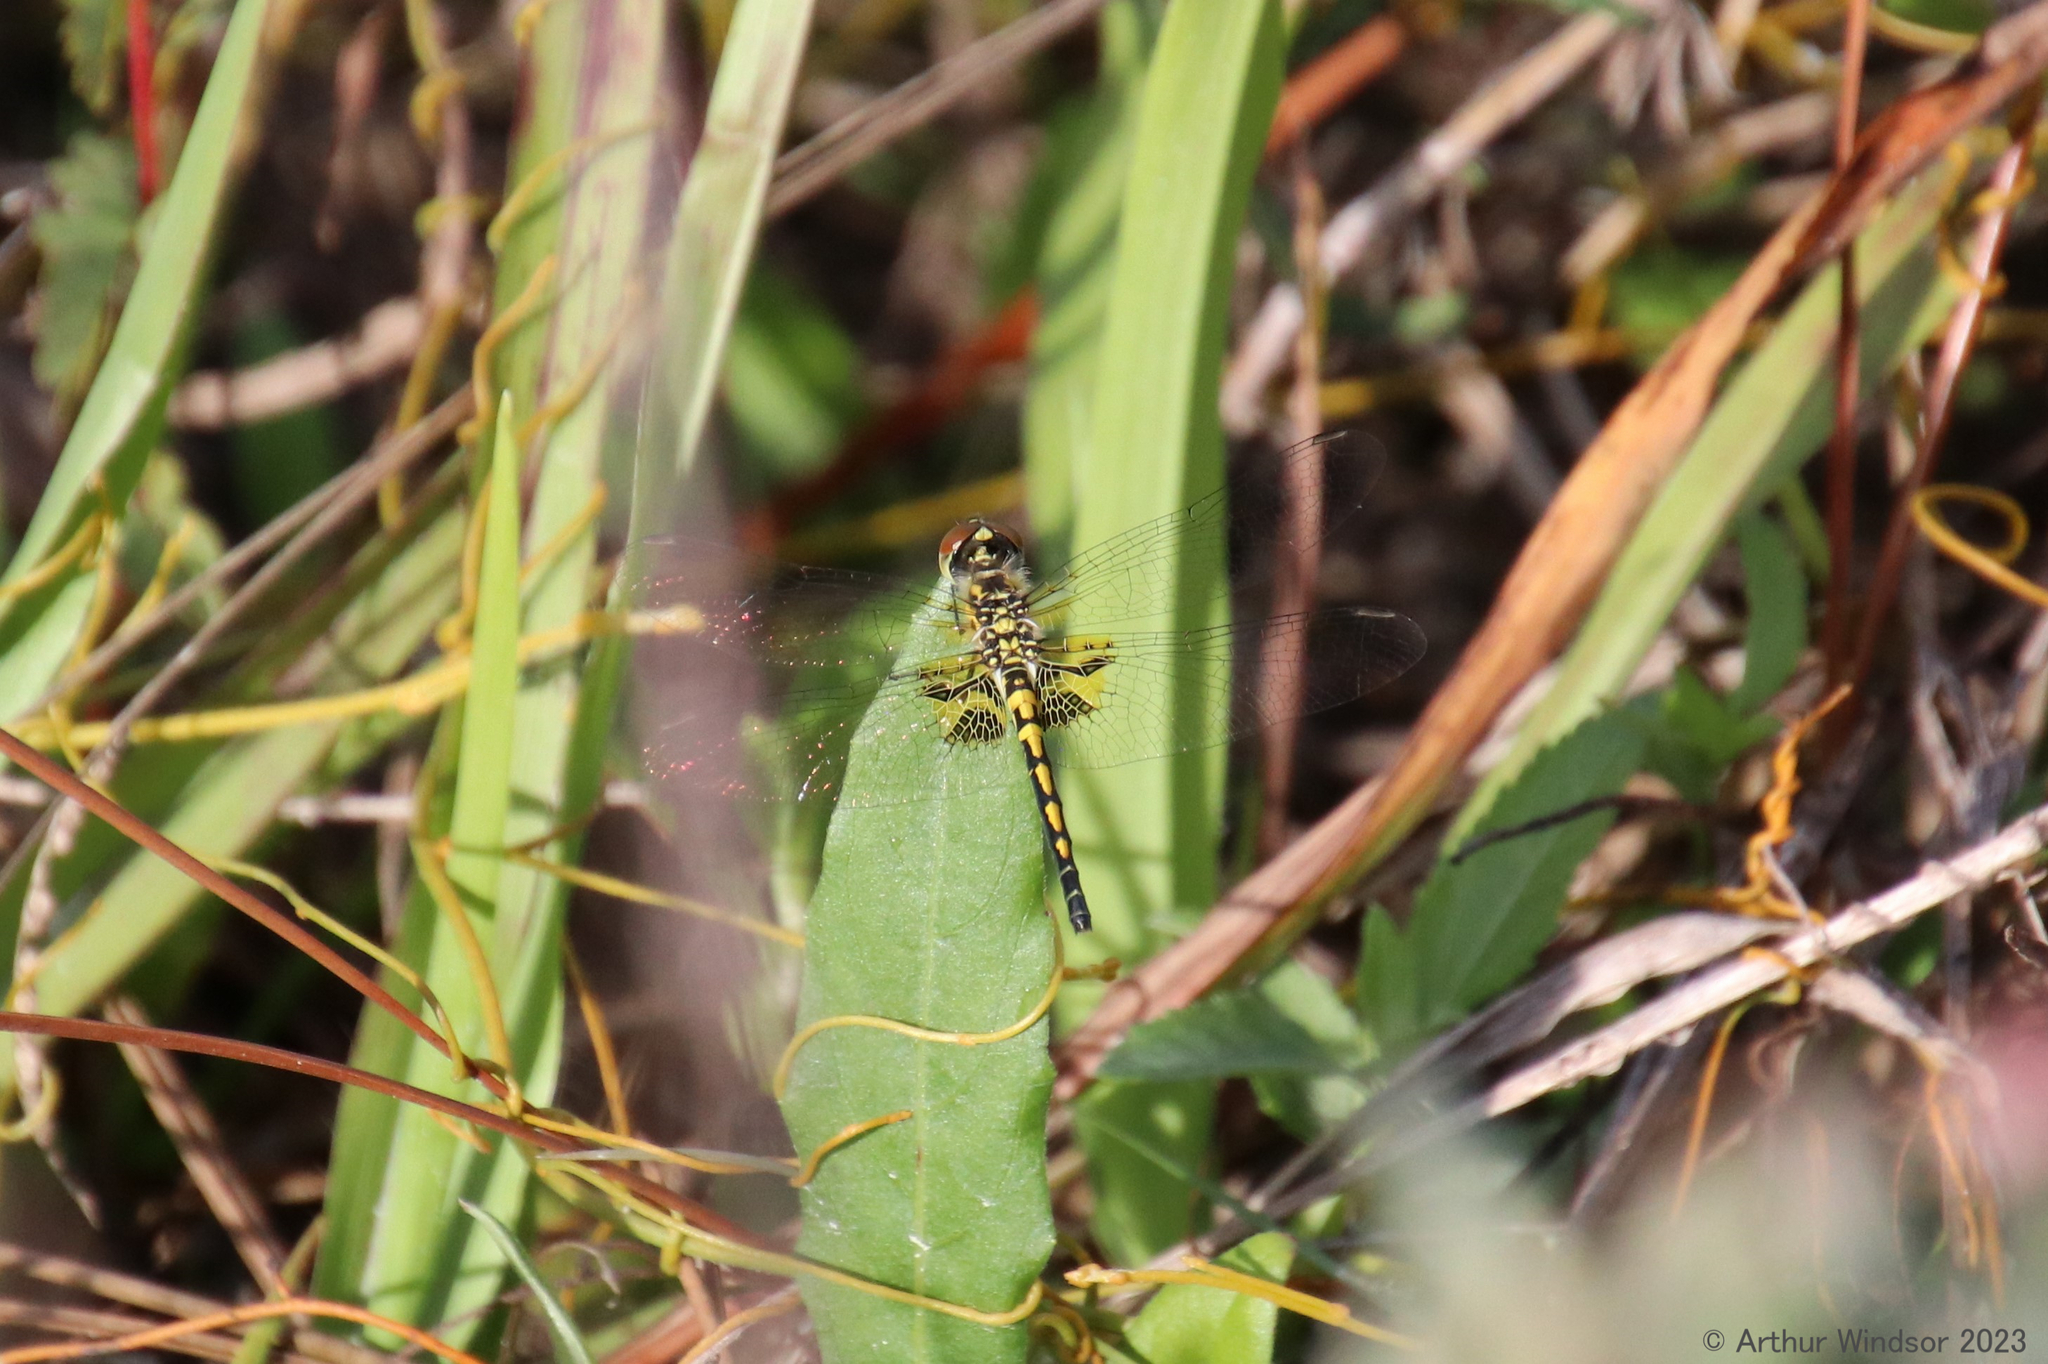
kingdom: Animalia
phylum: Arthropoda
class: Insecta
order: Odonata
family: Libellulidae
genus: Celithemis
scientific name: Celithemis ornata
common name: Ornate pennant
